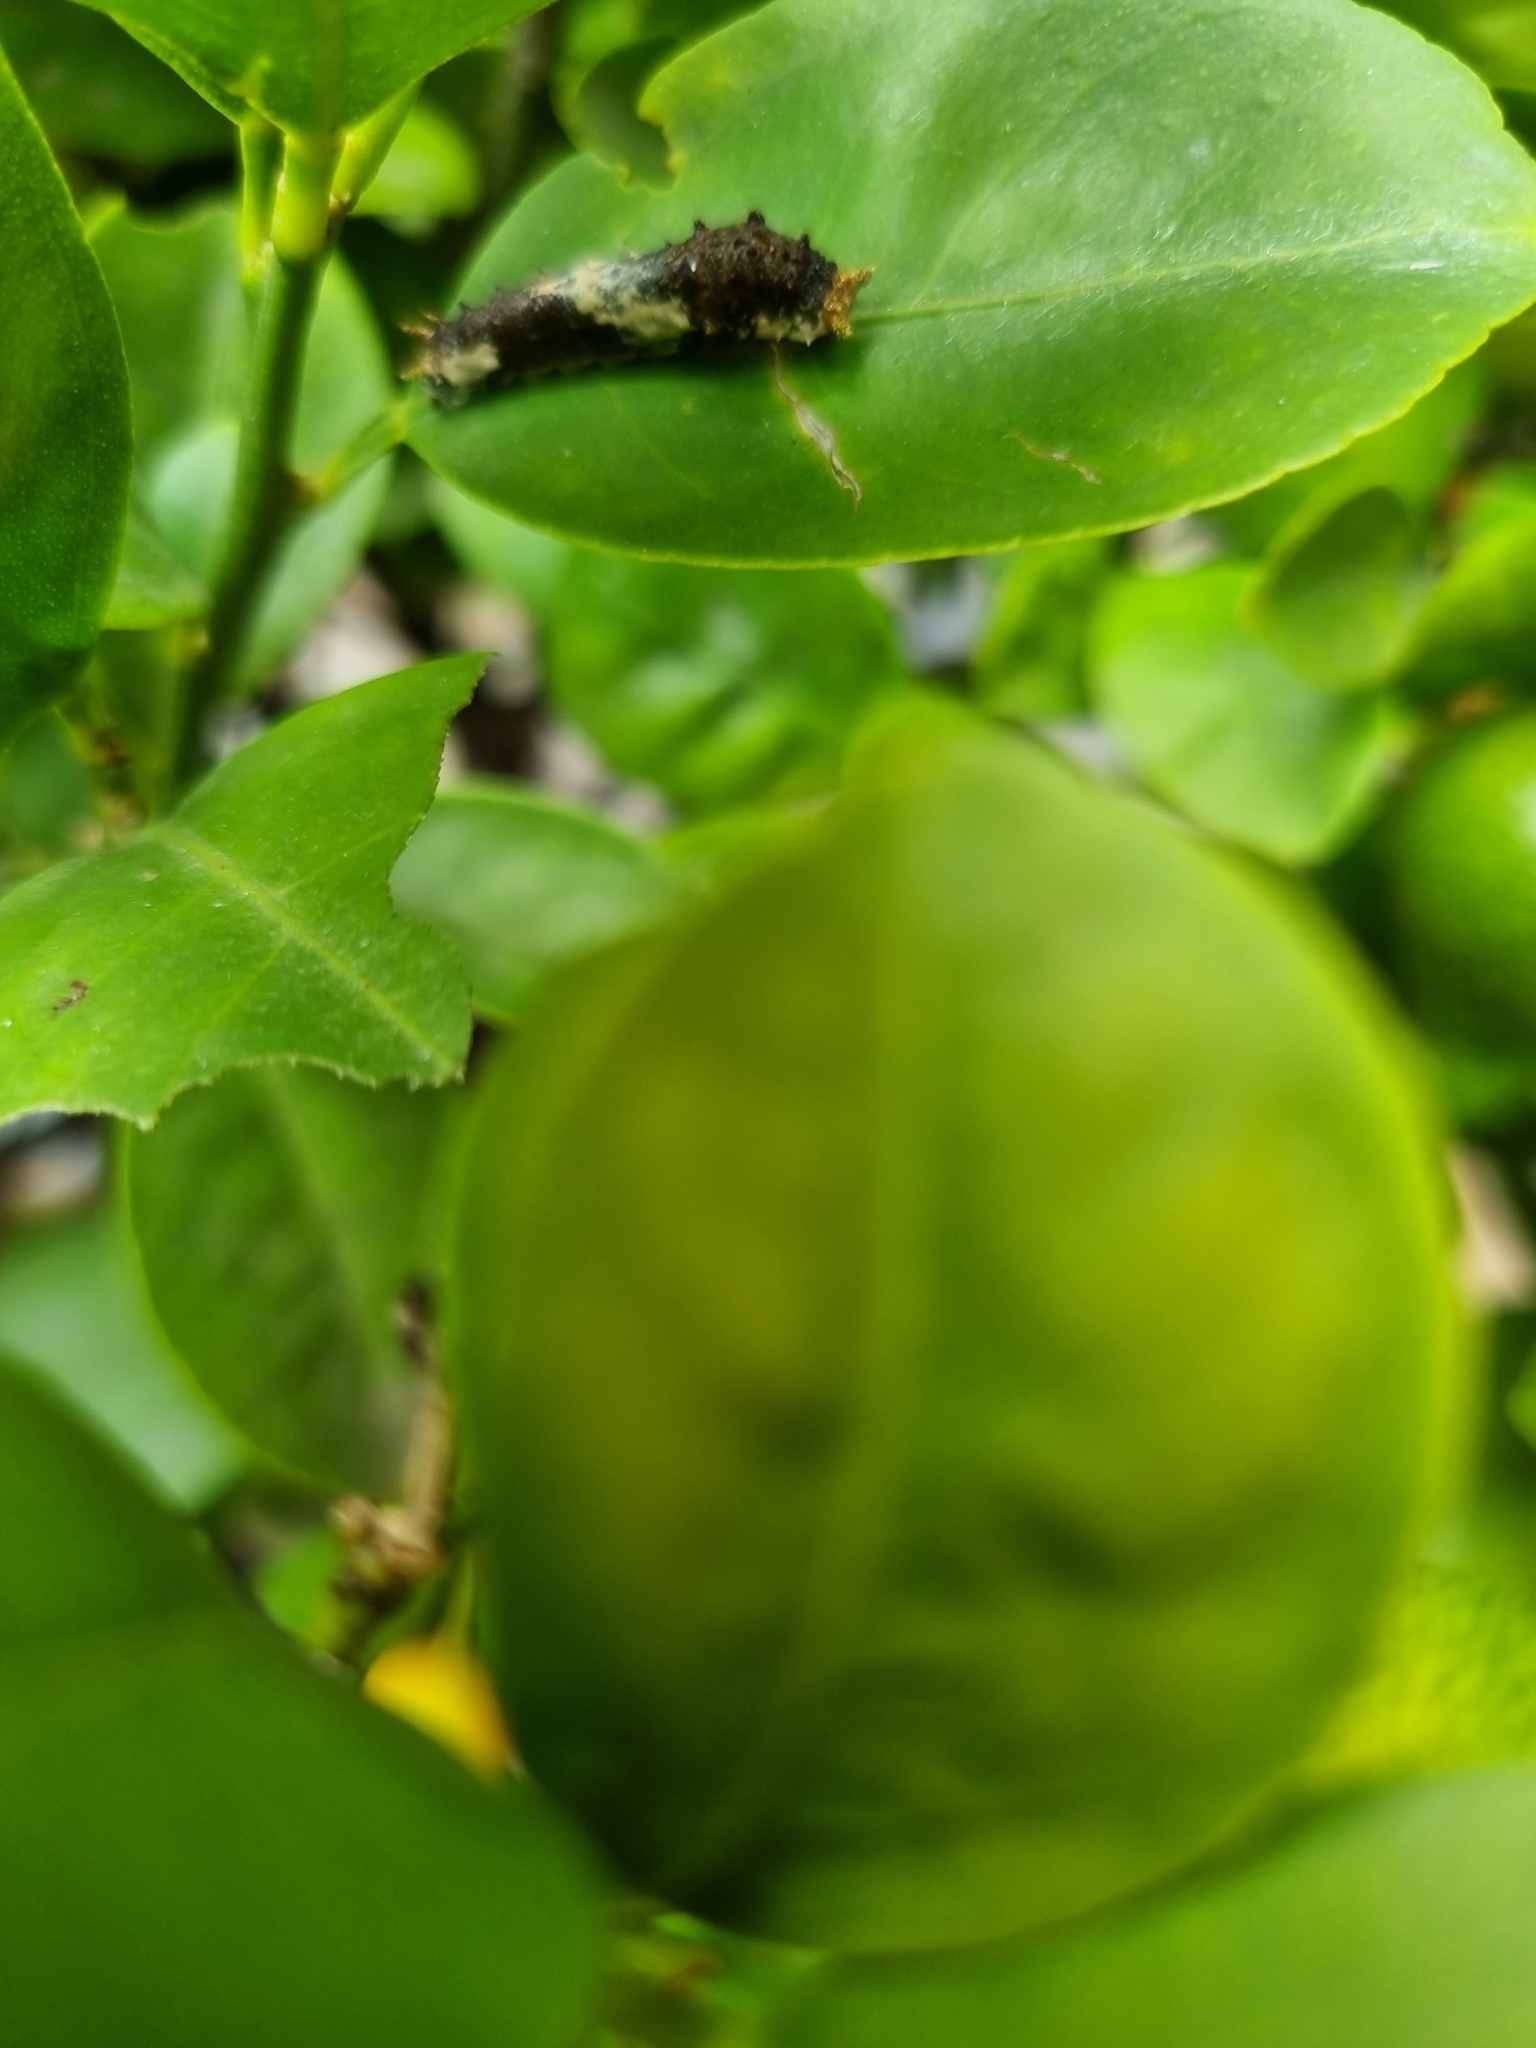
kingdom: Animalia
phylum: Arthropoda
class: Insecta
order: Lepidoptera
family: Papilionidae
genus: Papilio
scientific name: Papilio demodocus
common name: Christmas butterfly
